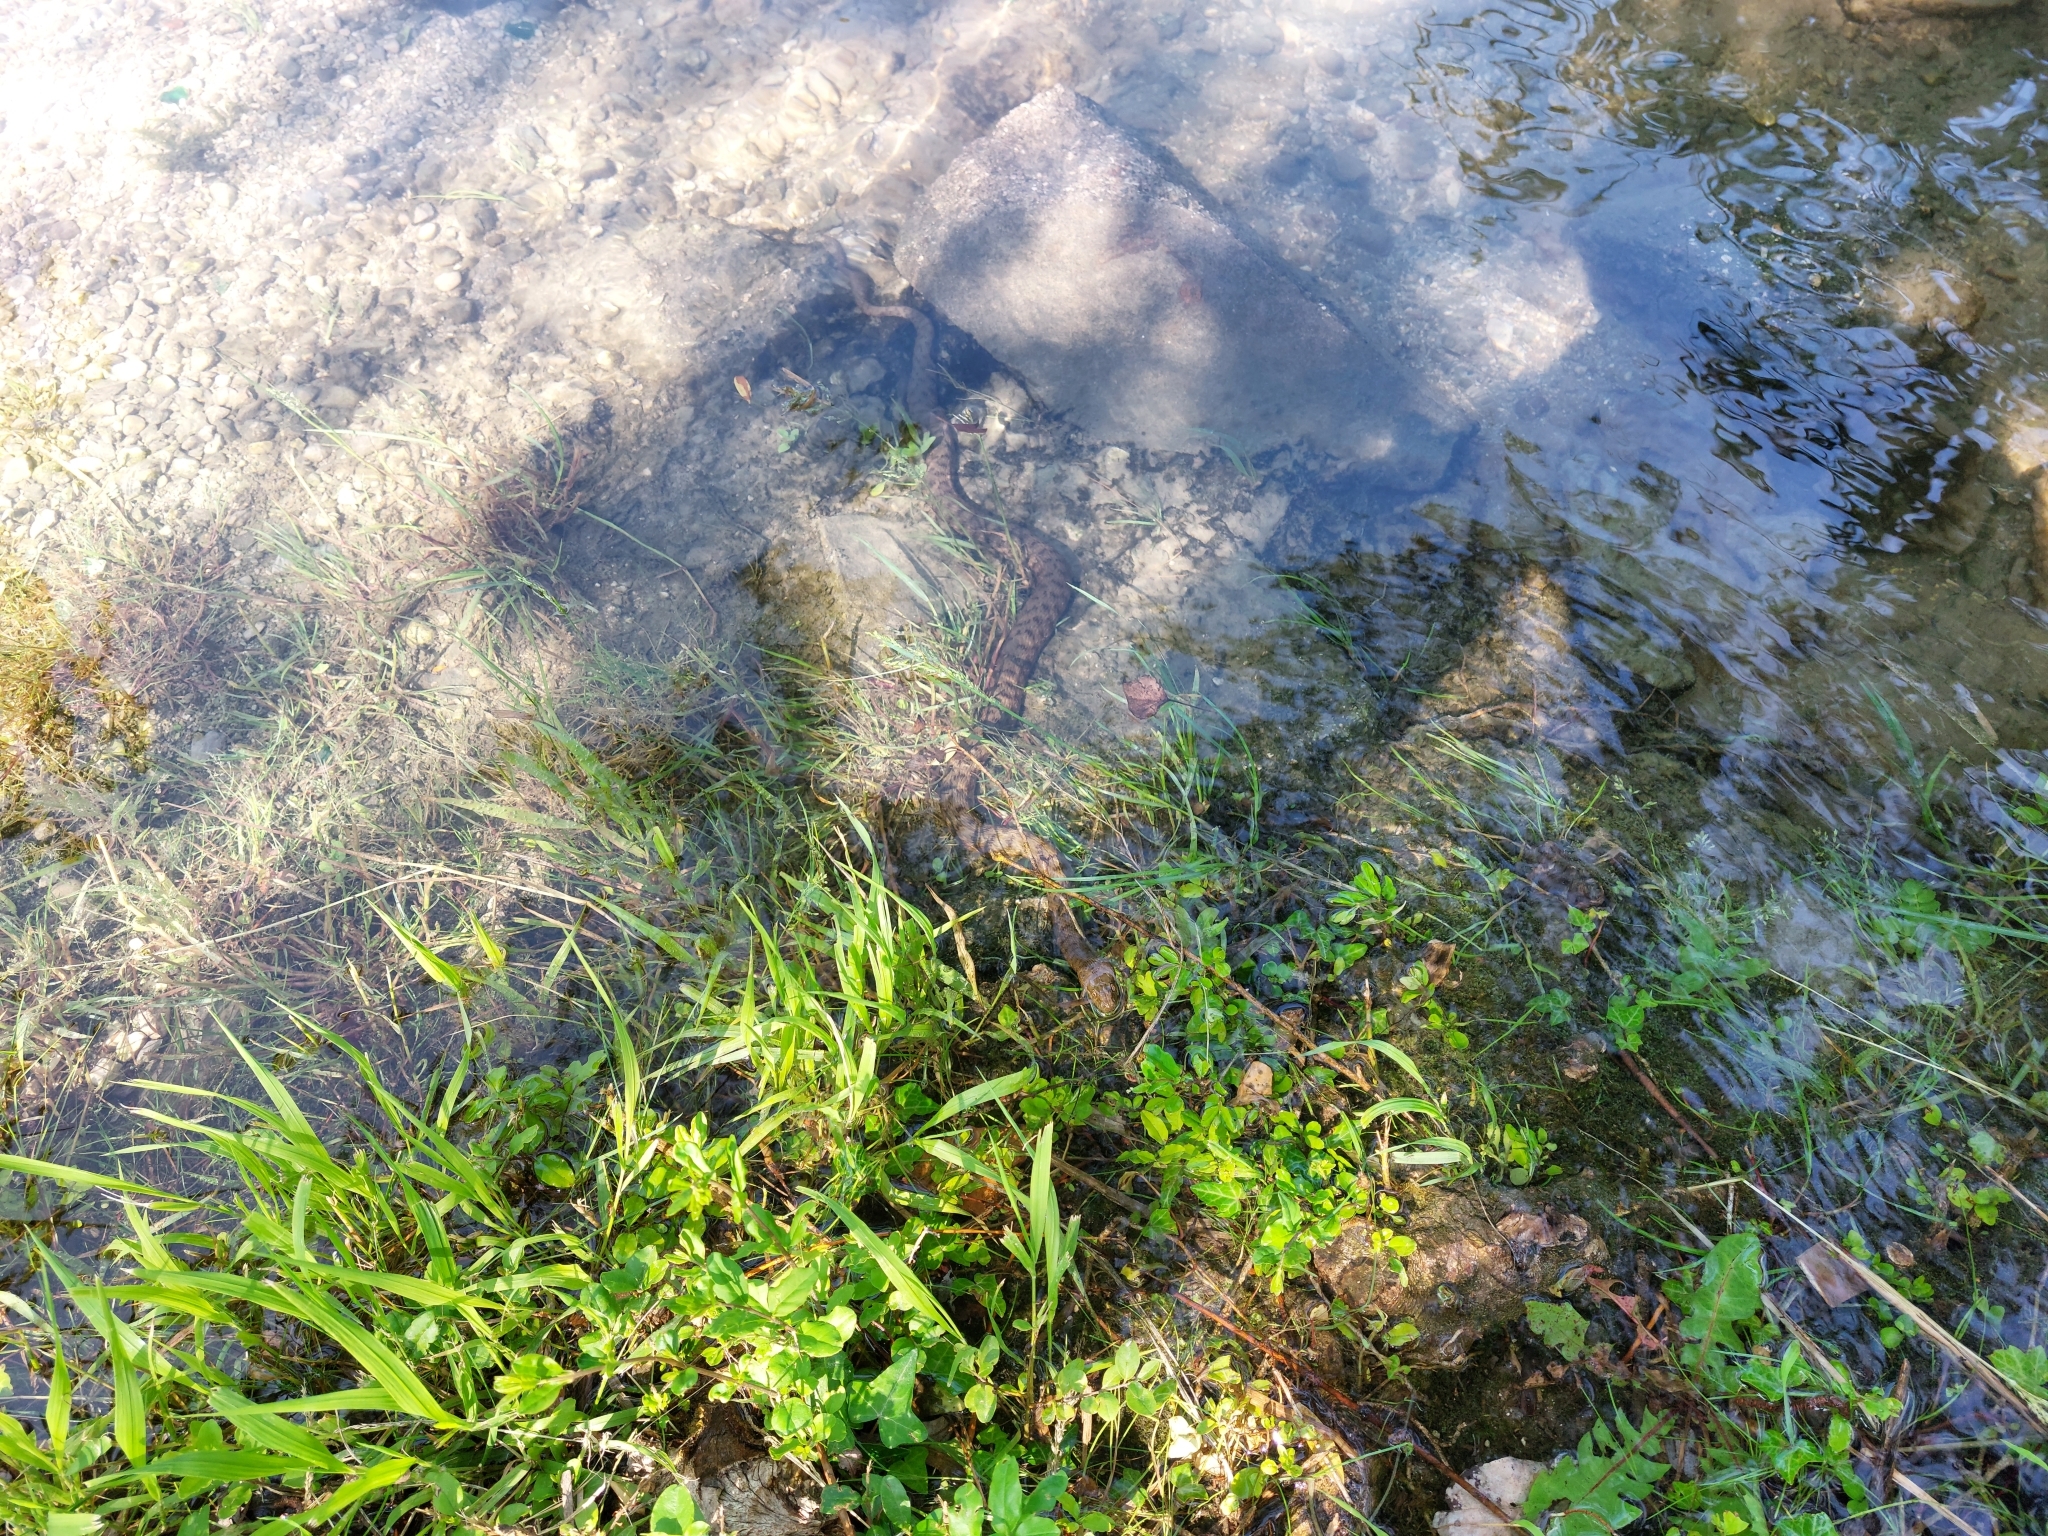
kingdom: Animalia
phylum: Chordata
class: Squamata
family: Colubridae
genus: Natrix
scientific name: Natrix tessellata
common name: Dice snake
